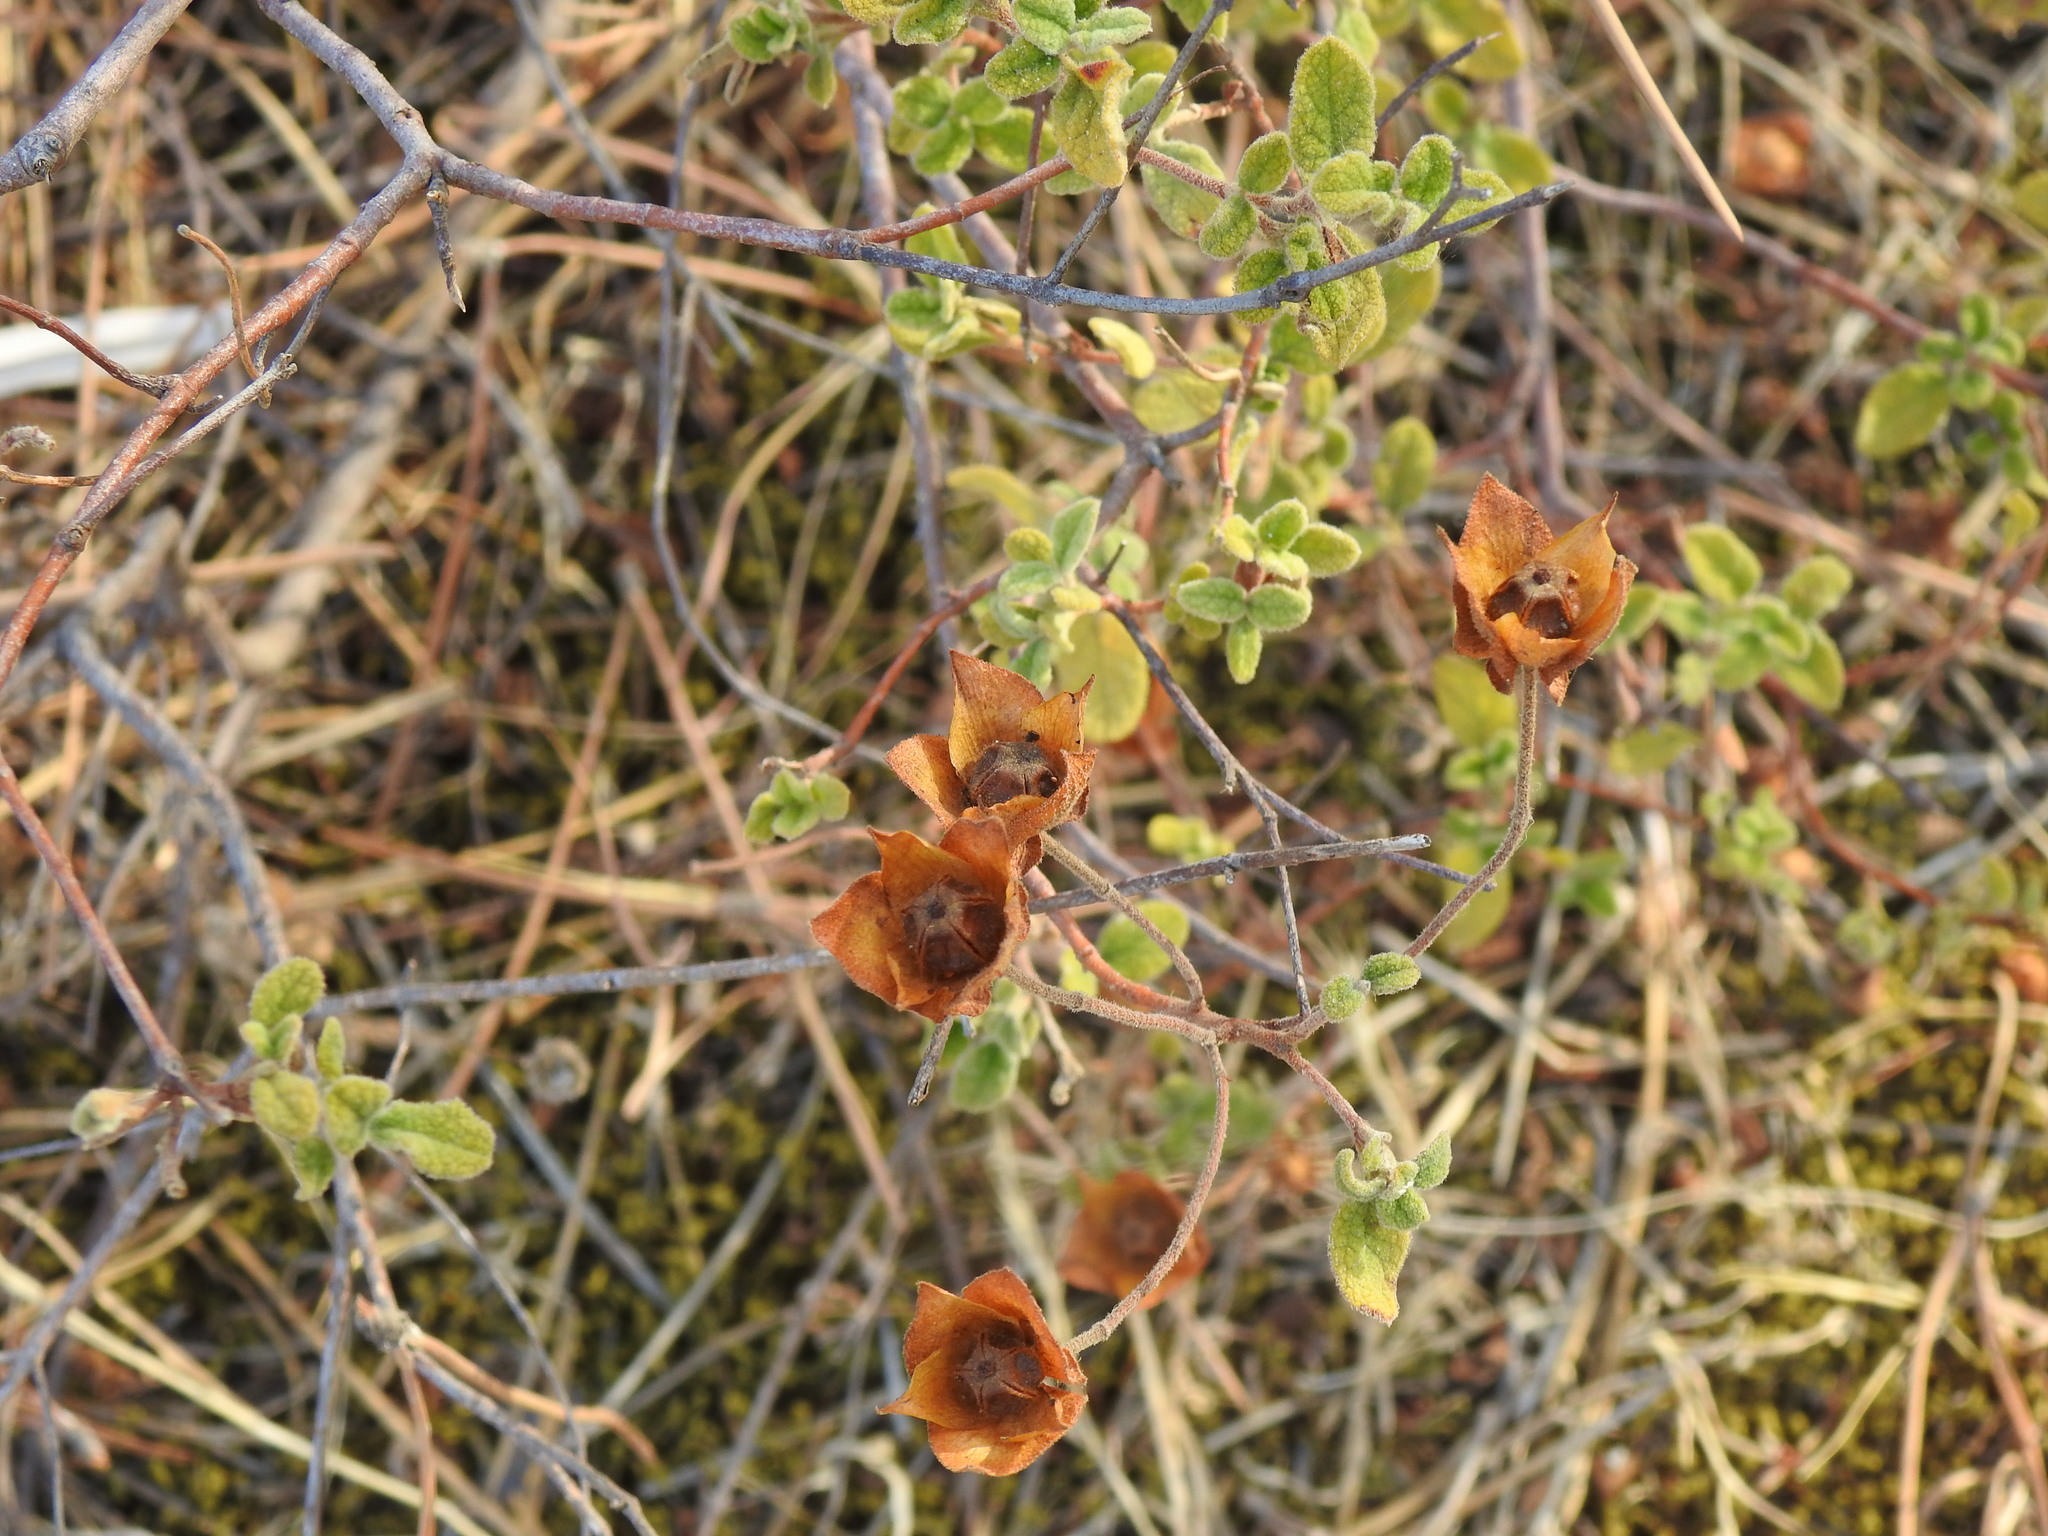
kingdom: Plantae
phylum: Tracheophyta
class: Magnoliopsida
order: Malvales
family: Cistaceae
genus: Cistus
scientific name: Cistus salviifolius
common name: Salvia cistus
